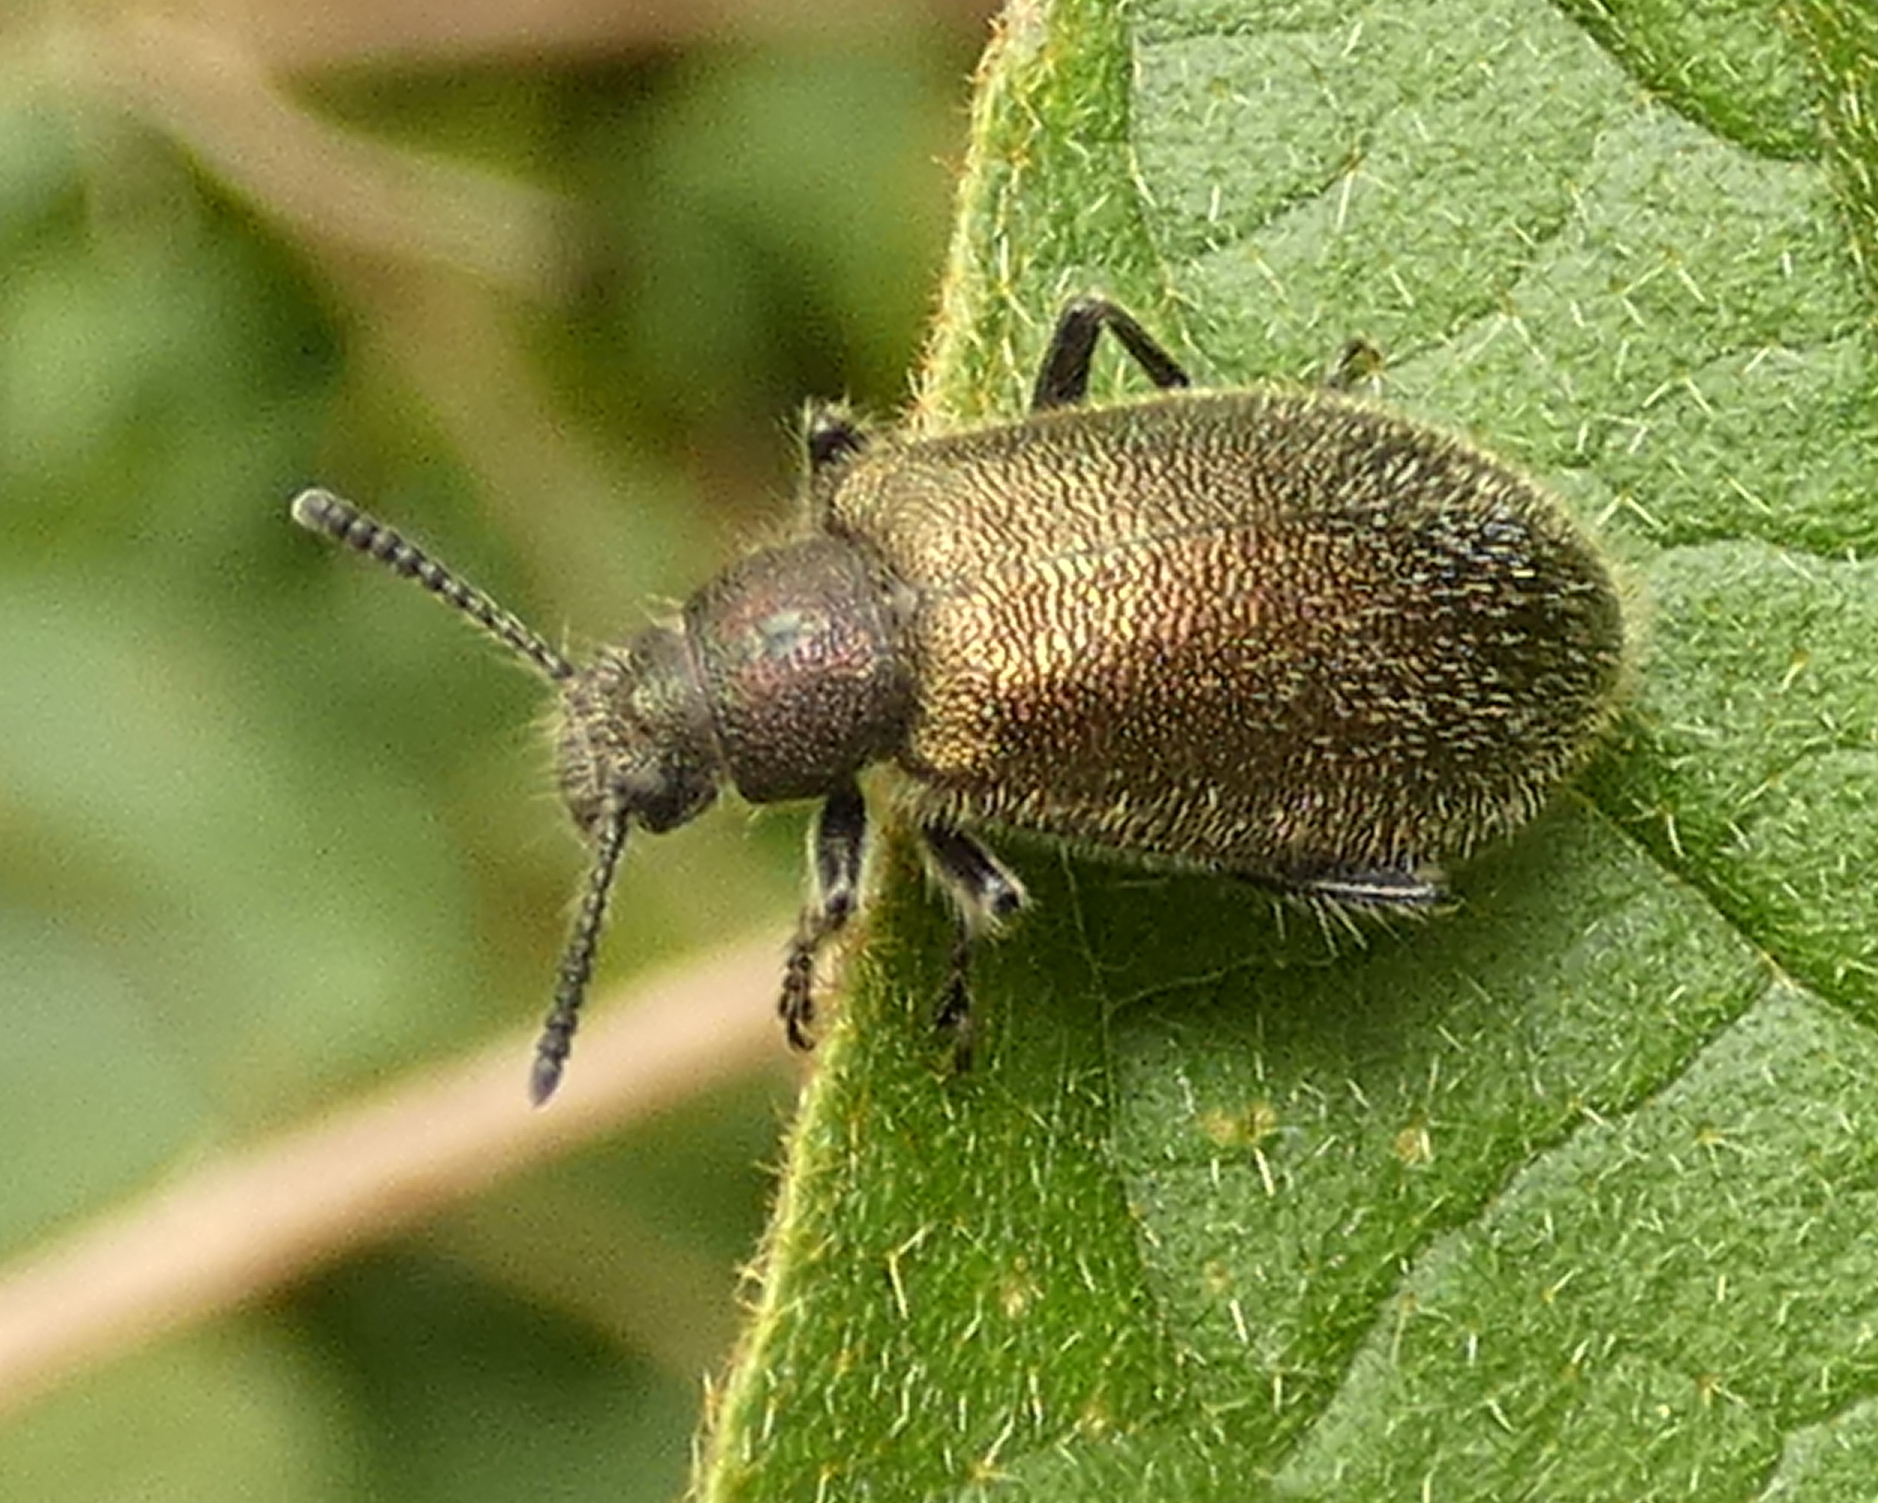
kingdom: Animalia
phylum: Arthropoda
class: Insecta
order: Coleoptera
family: Tenebrionidae
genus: Lagria
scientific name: Lagria villosa
